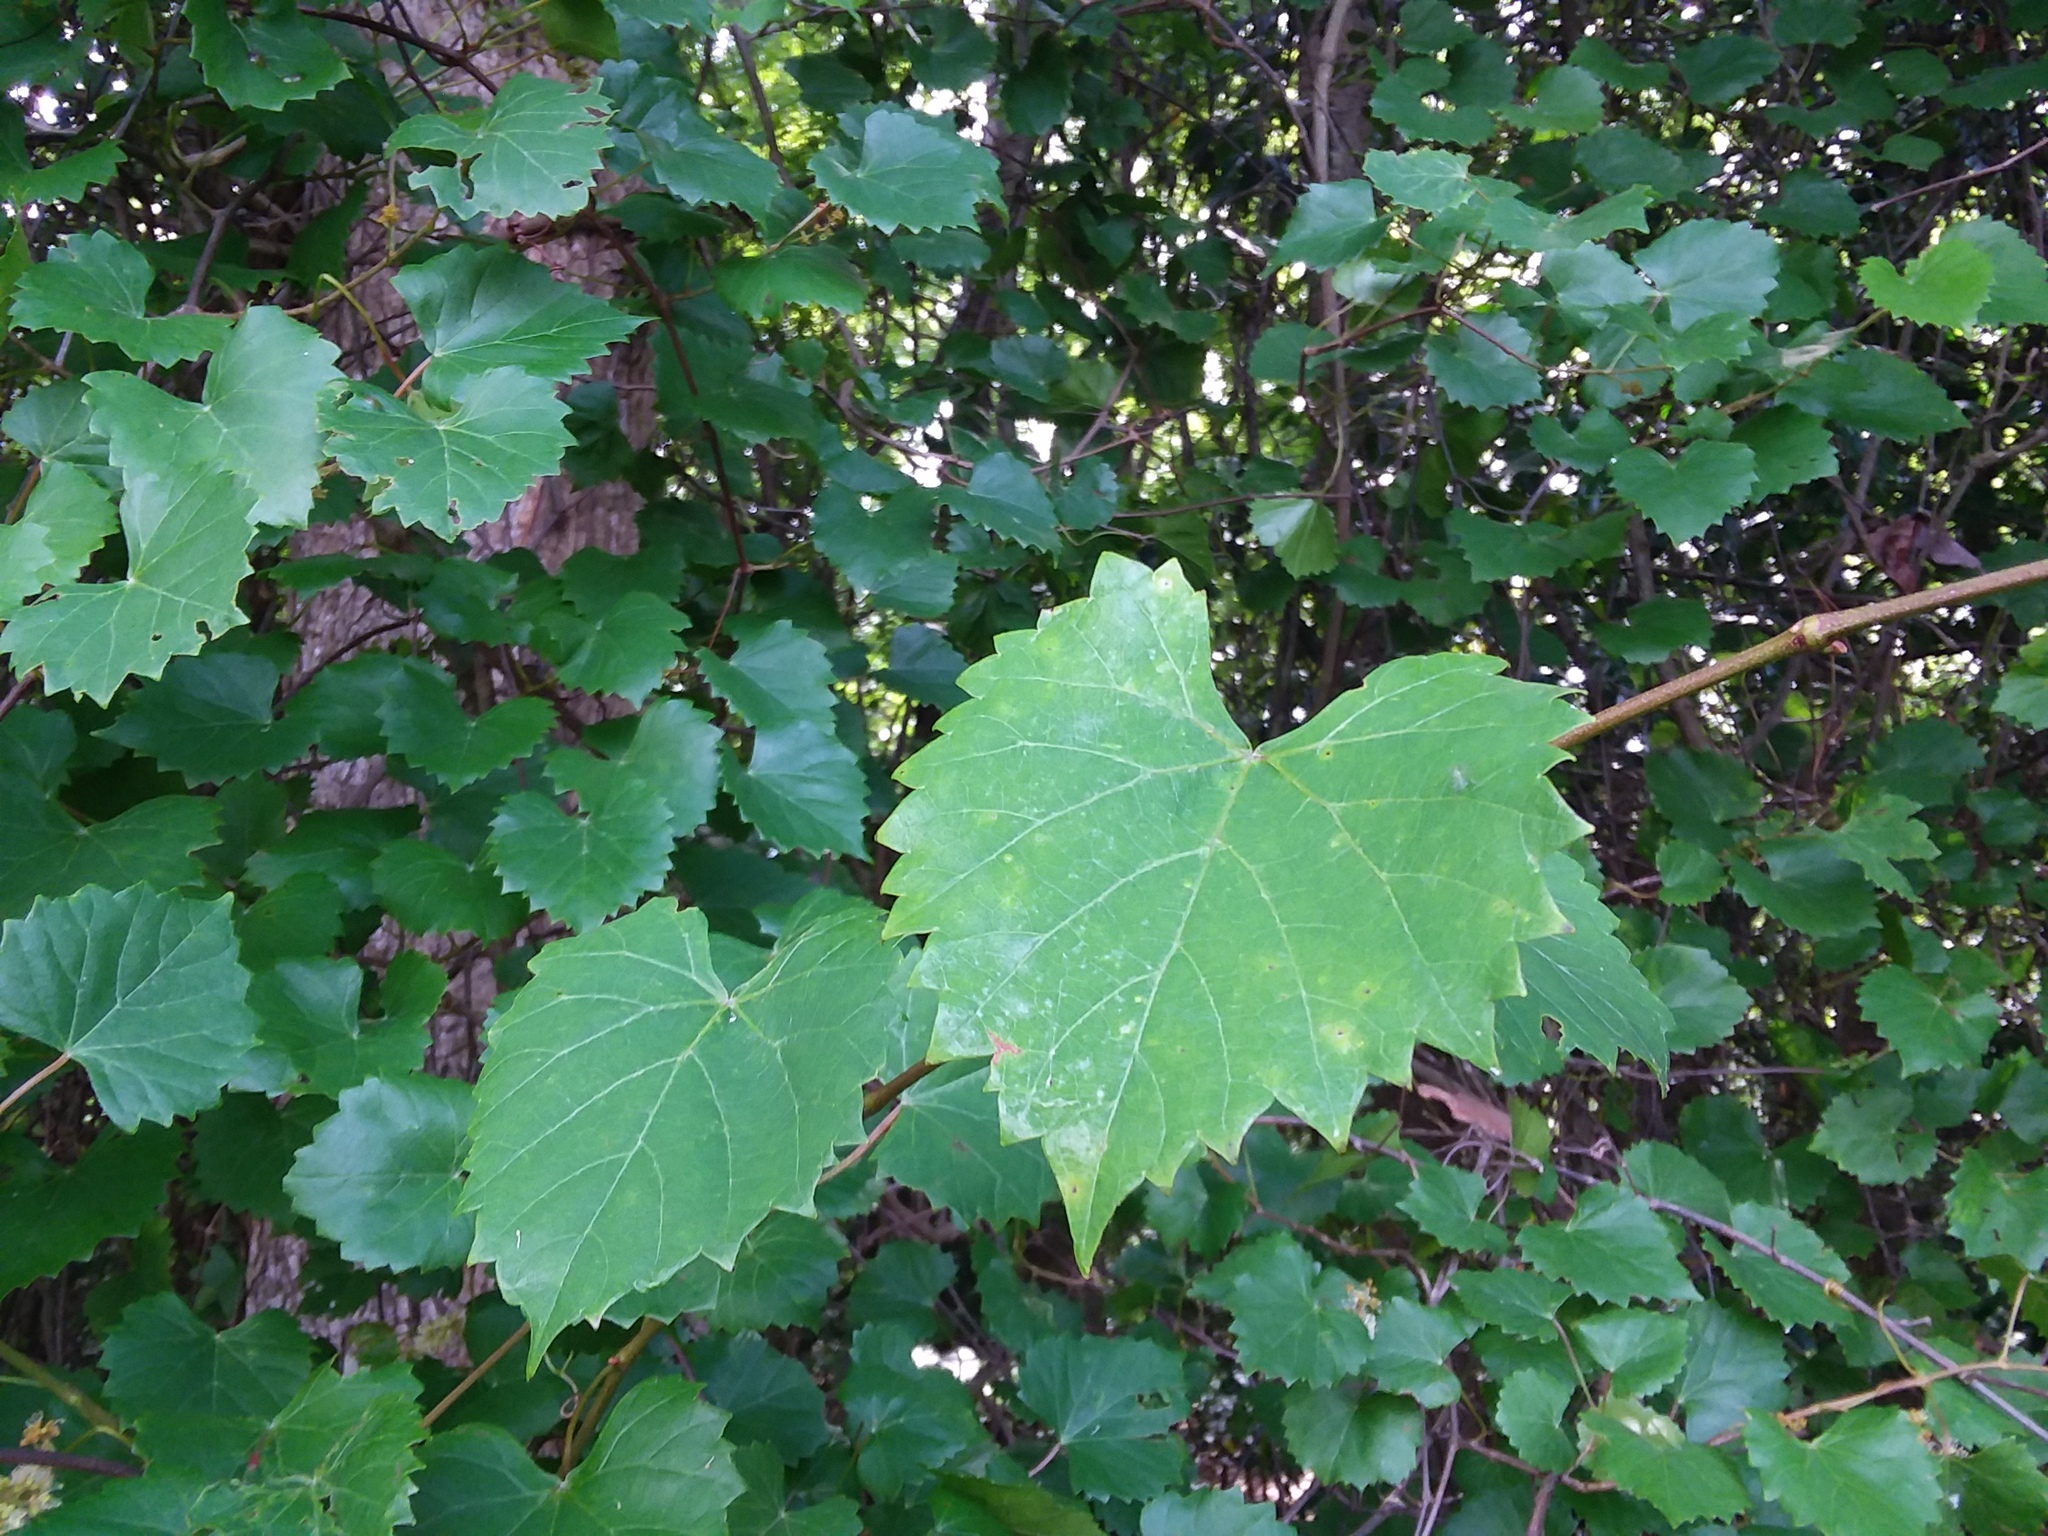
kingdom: Plantae
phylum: Tracheophyta
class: Magnoliopsida
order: Vitales
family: Vitaceae
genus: Vitis
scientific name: Vitis rotundifolia
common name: Muscadine grape
